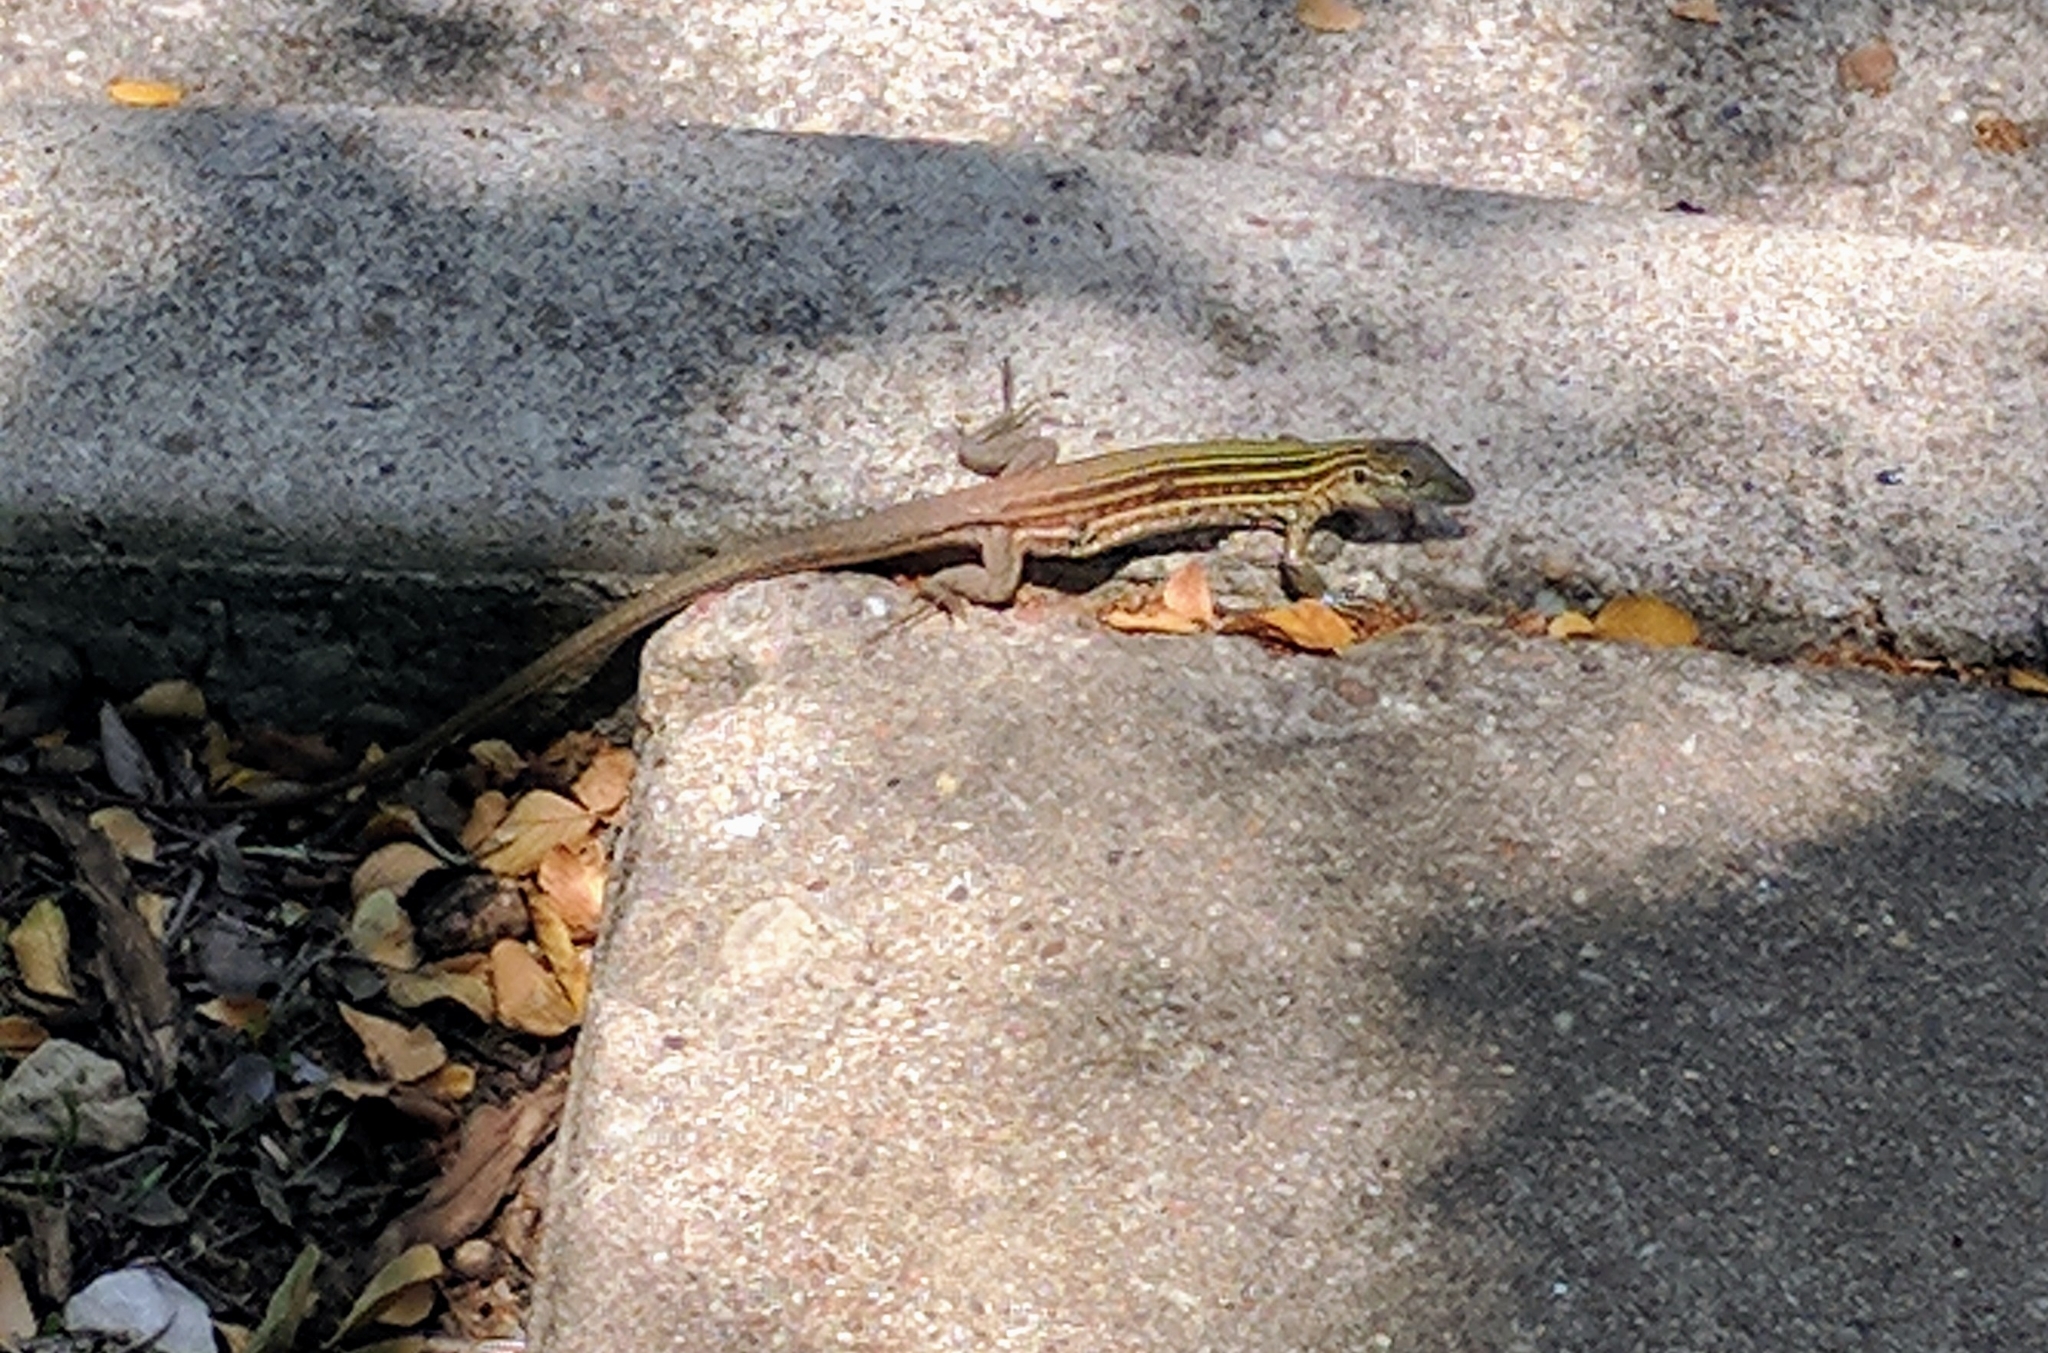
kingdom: Animalia
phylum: Chordata
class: Squamata
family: Teiidae
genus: Aspidoscelis
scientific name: Aspidoscelis gularis
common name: Eastern spotted whiptail
